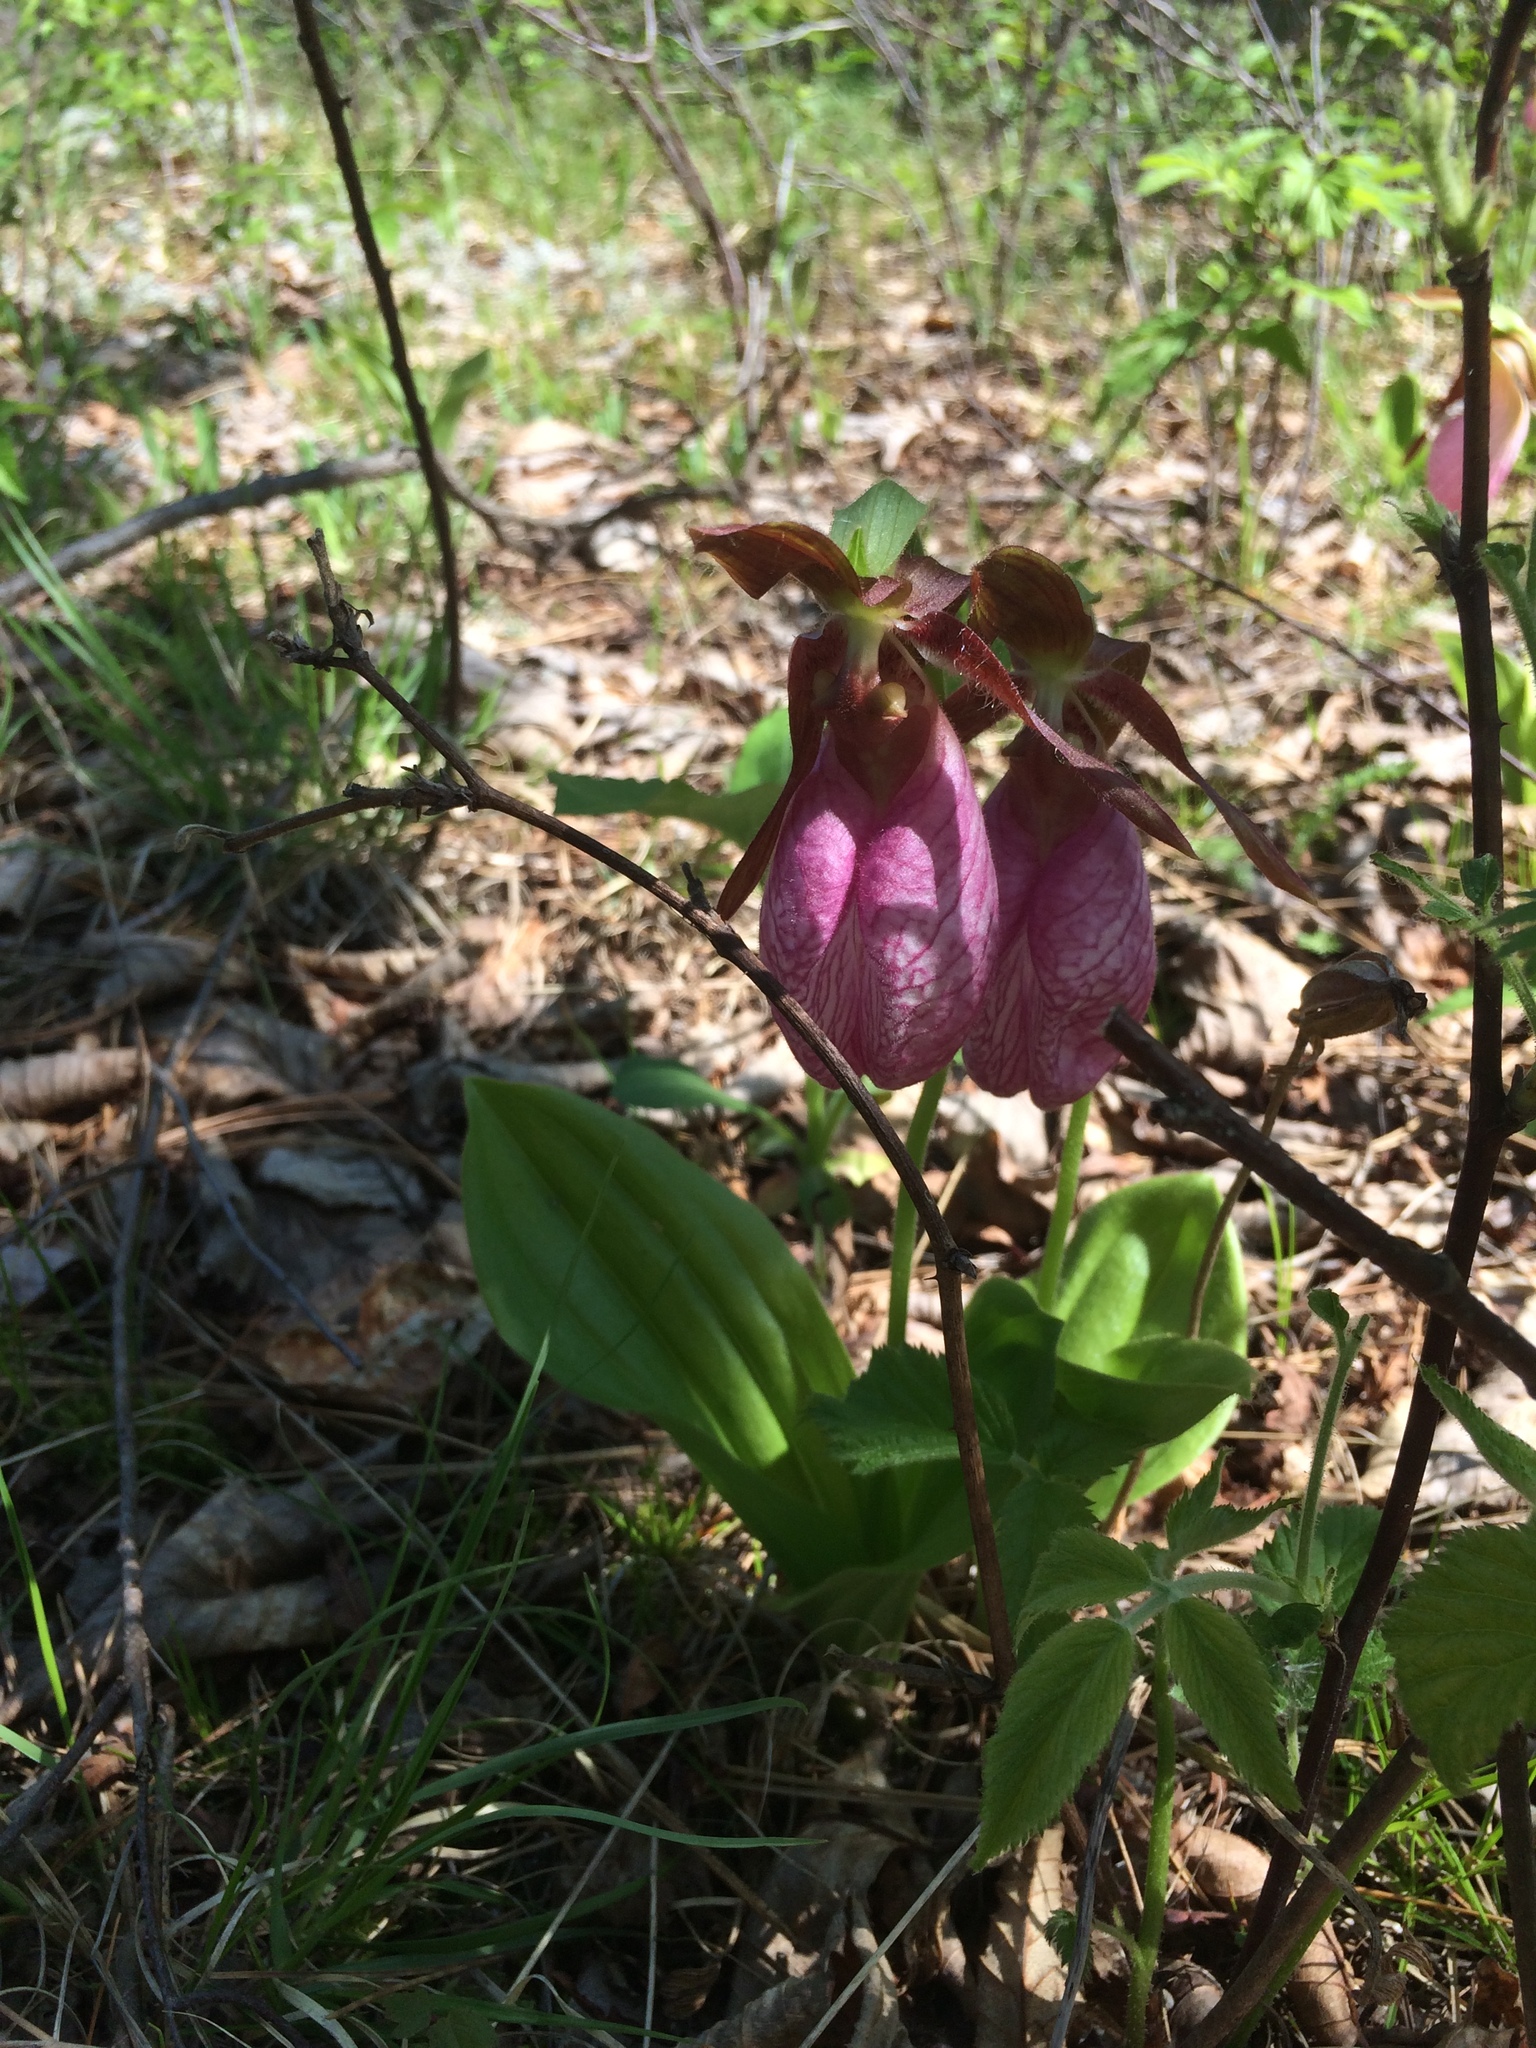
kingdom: Plantae
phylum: Tracheophyta
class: Liliopsida
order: Asparagales
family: Orchidaceae
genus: Cypripedium
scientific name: Cypripedium acaule
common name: Pink lady's-slipper
